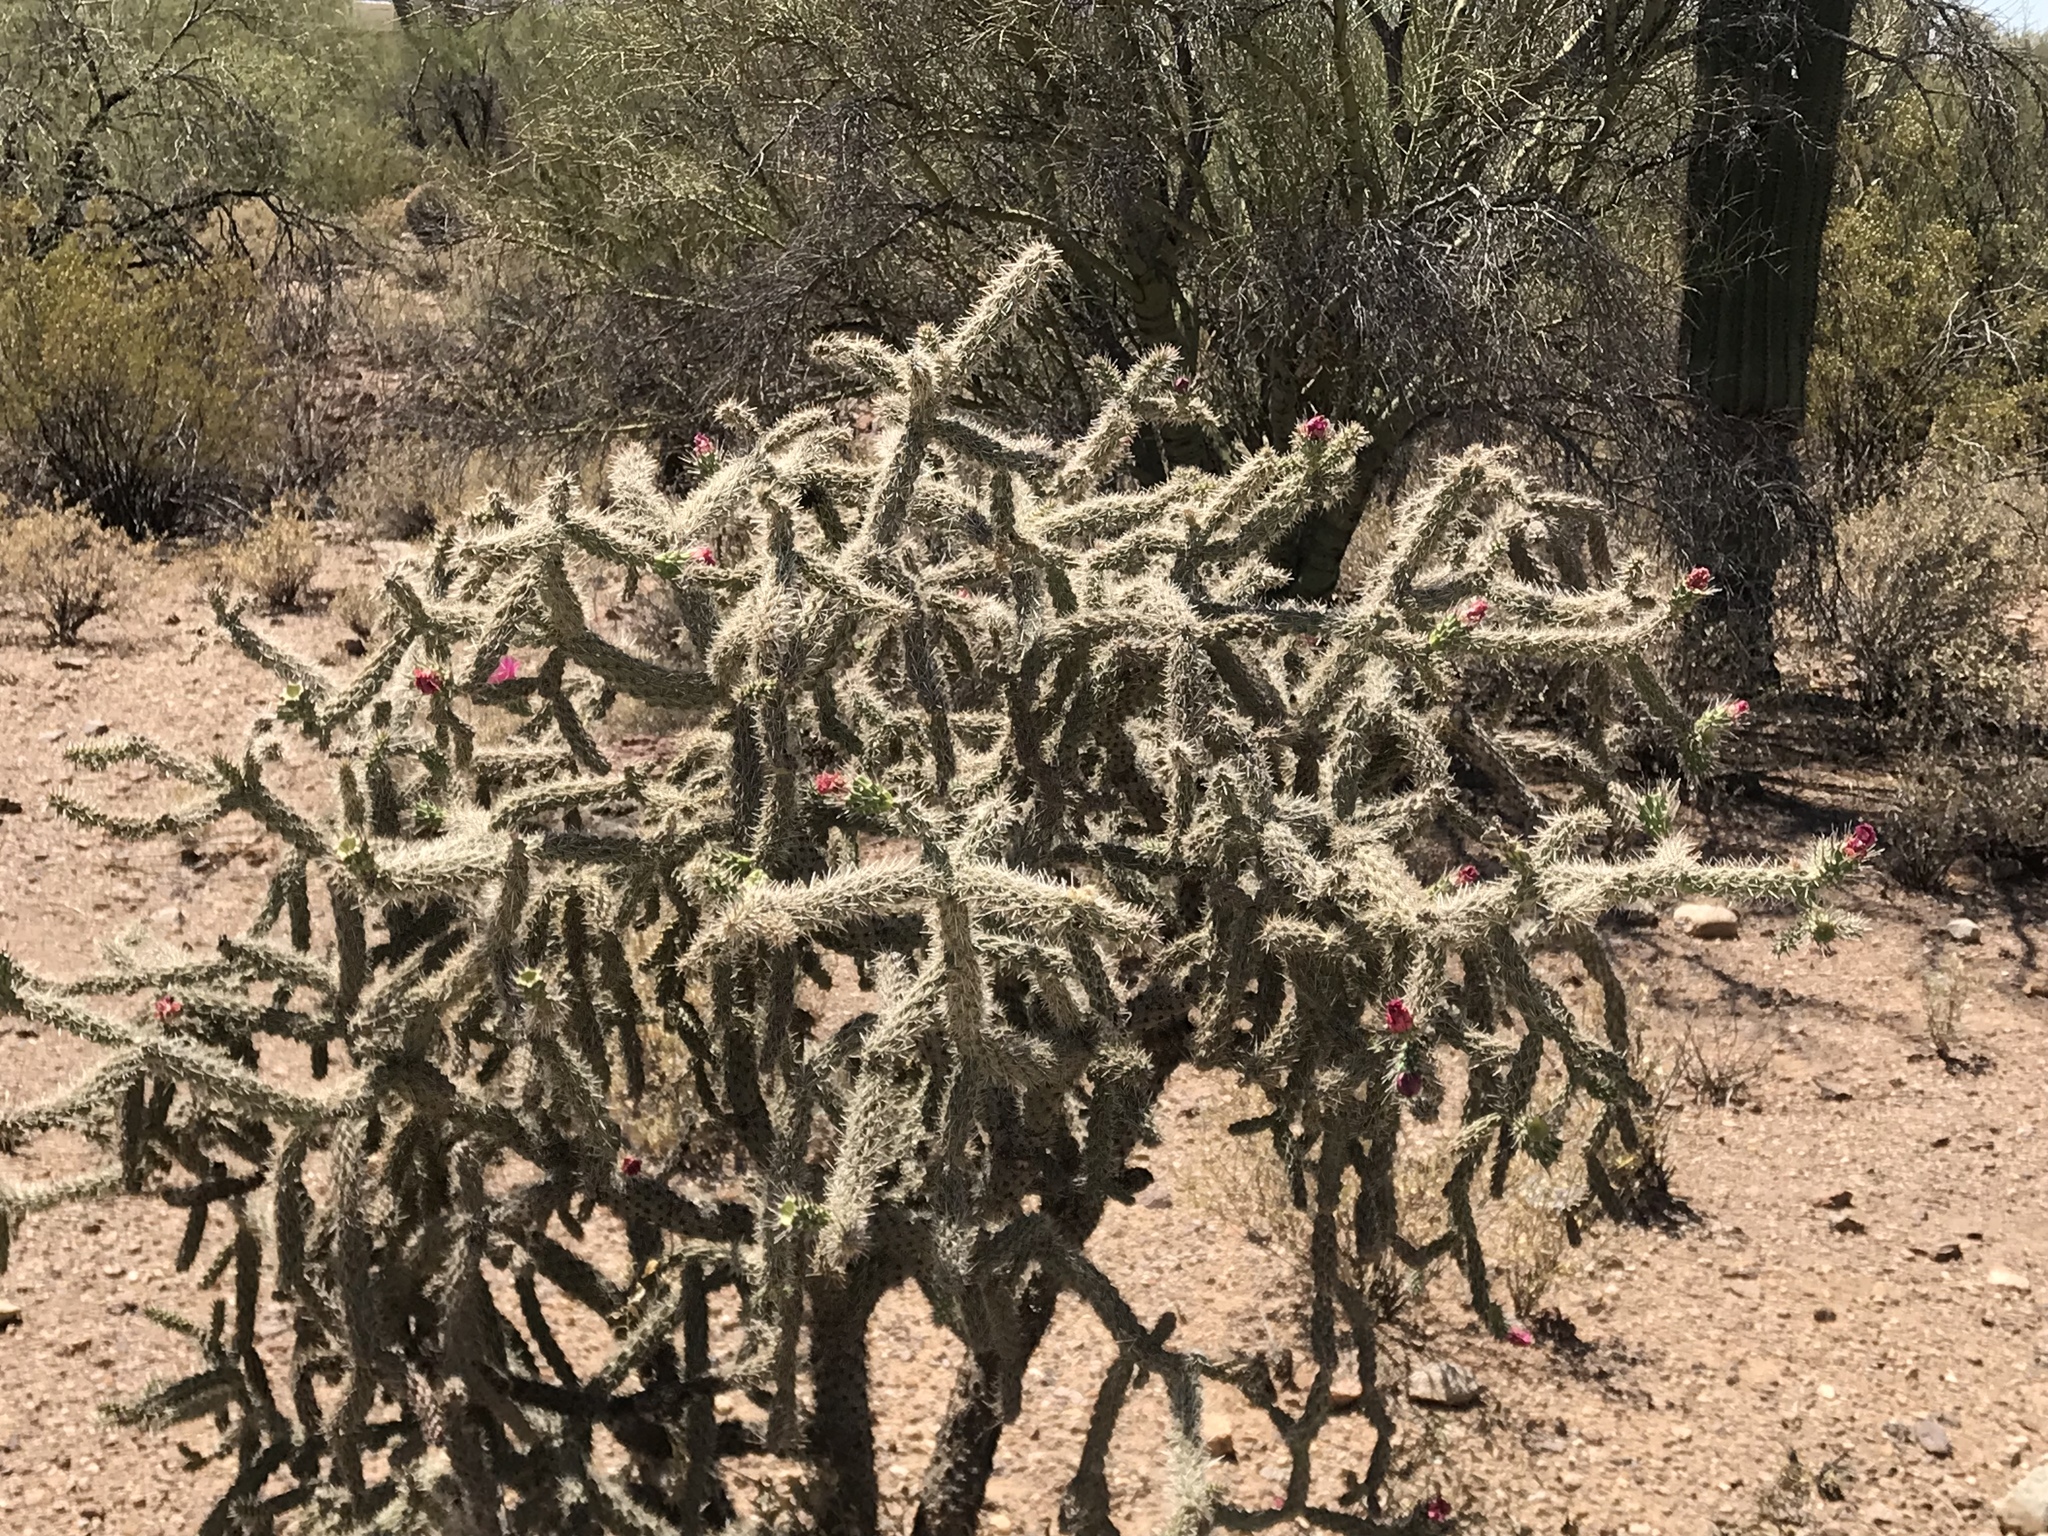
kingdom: Plantae
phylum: Tracheophyta
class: Magnoliopsida
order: Caryophyllales
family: Cactaceae
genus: Cylindropuntia
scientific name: Cylindropuntia imbricata
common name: Candelabrum cactus
